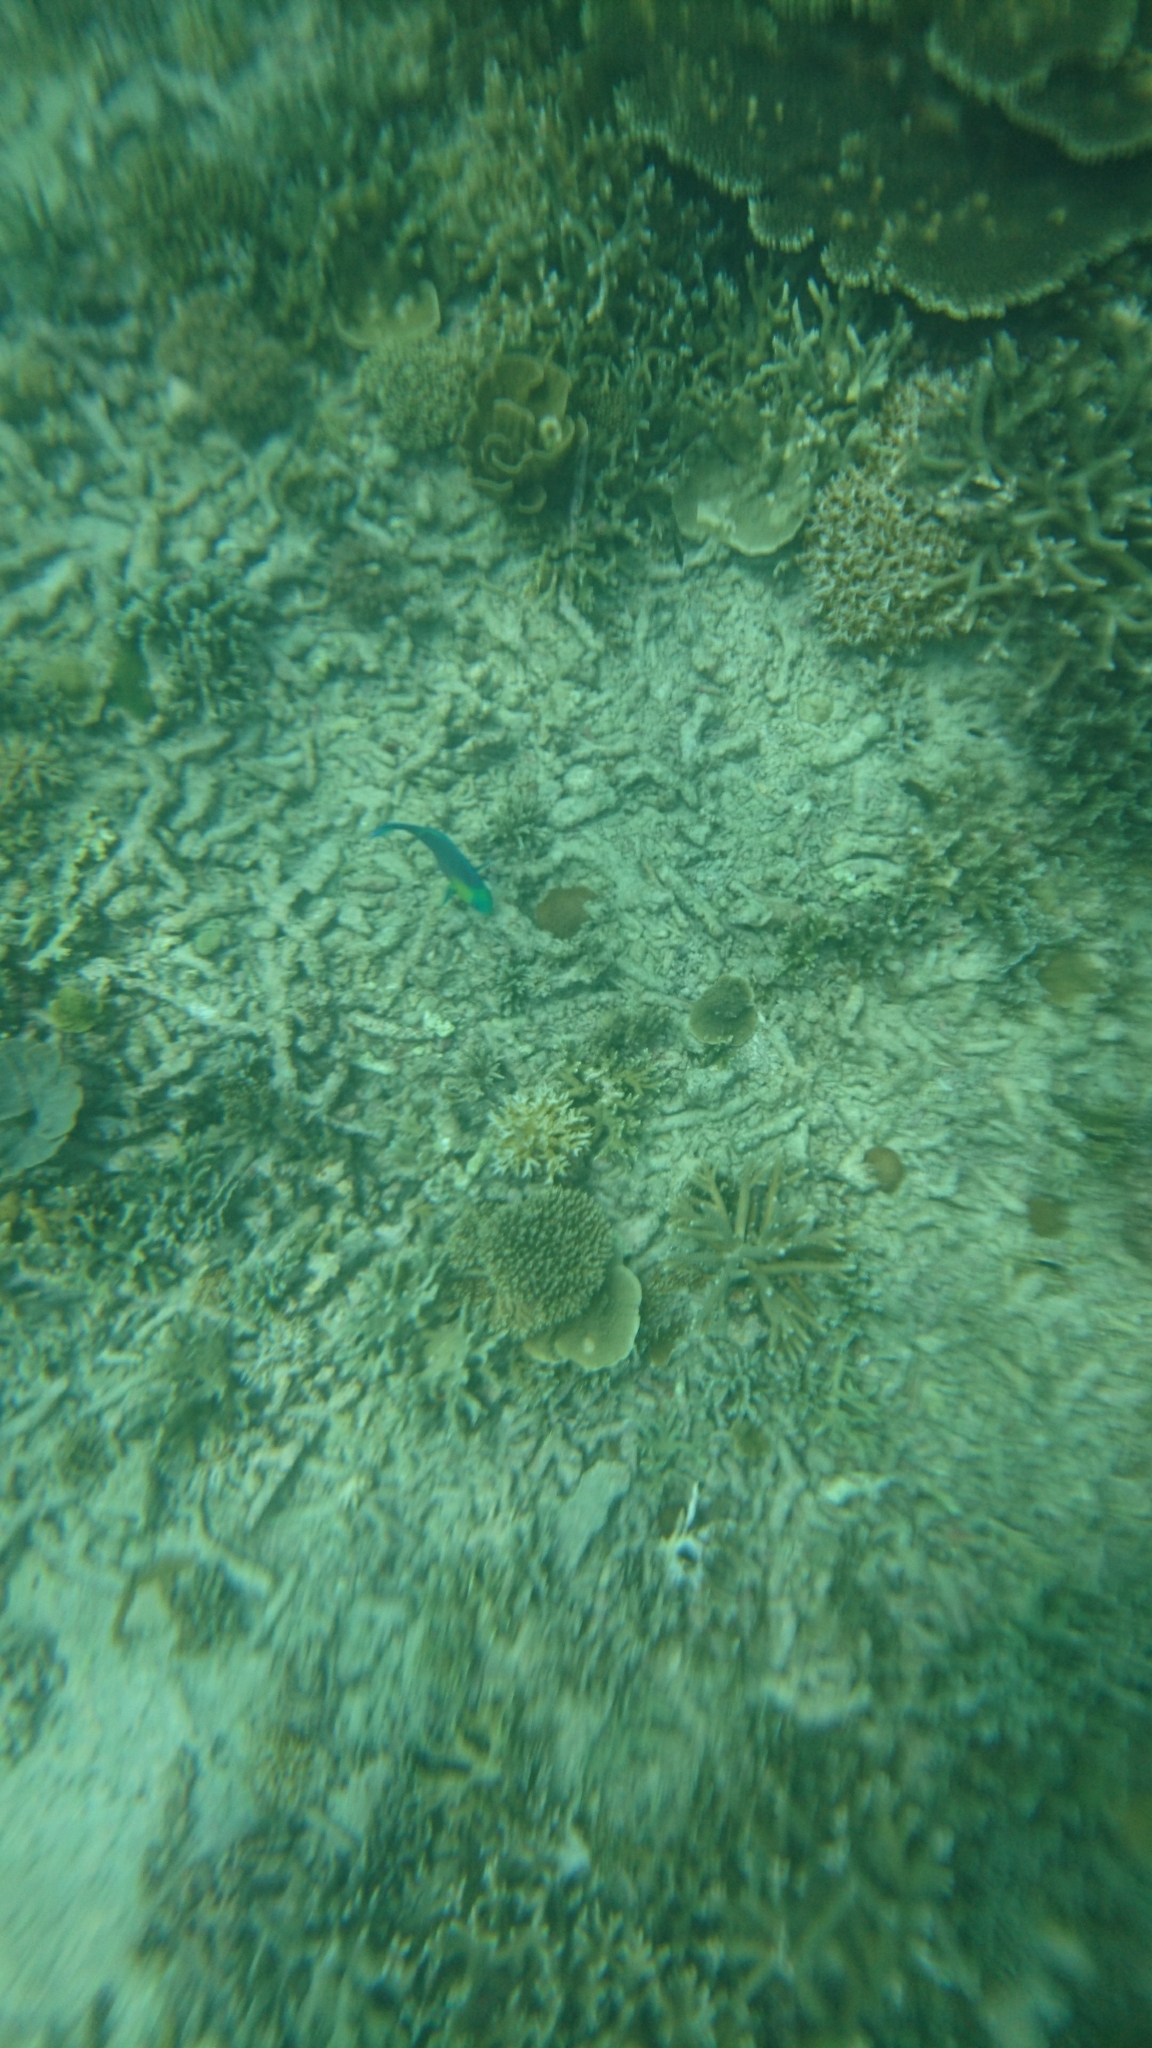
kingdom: Animalia
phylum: Chordata
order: Perciformes
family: Scaridae
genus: Scarus
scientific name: Scarus spinus
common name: Greensnout parrotfish
